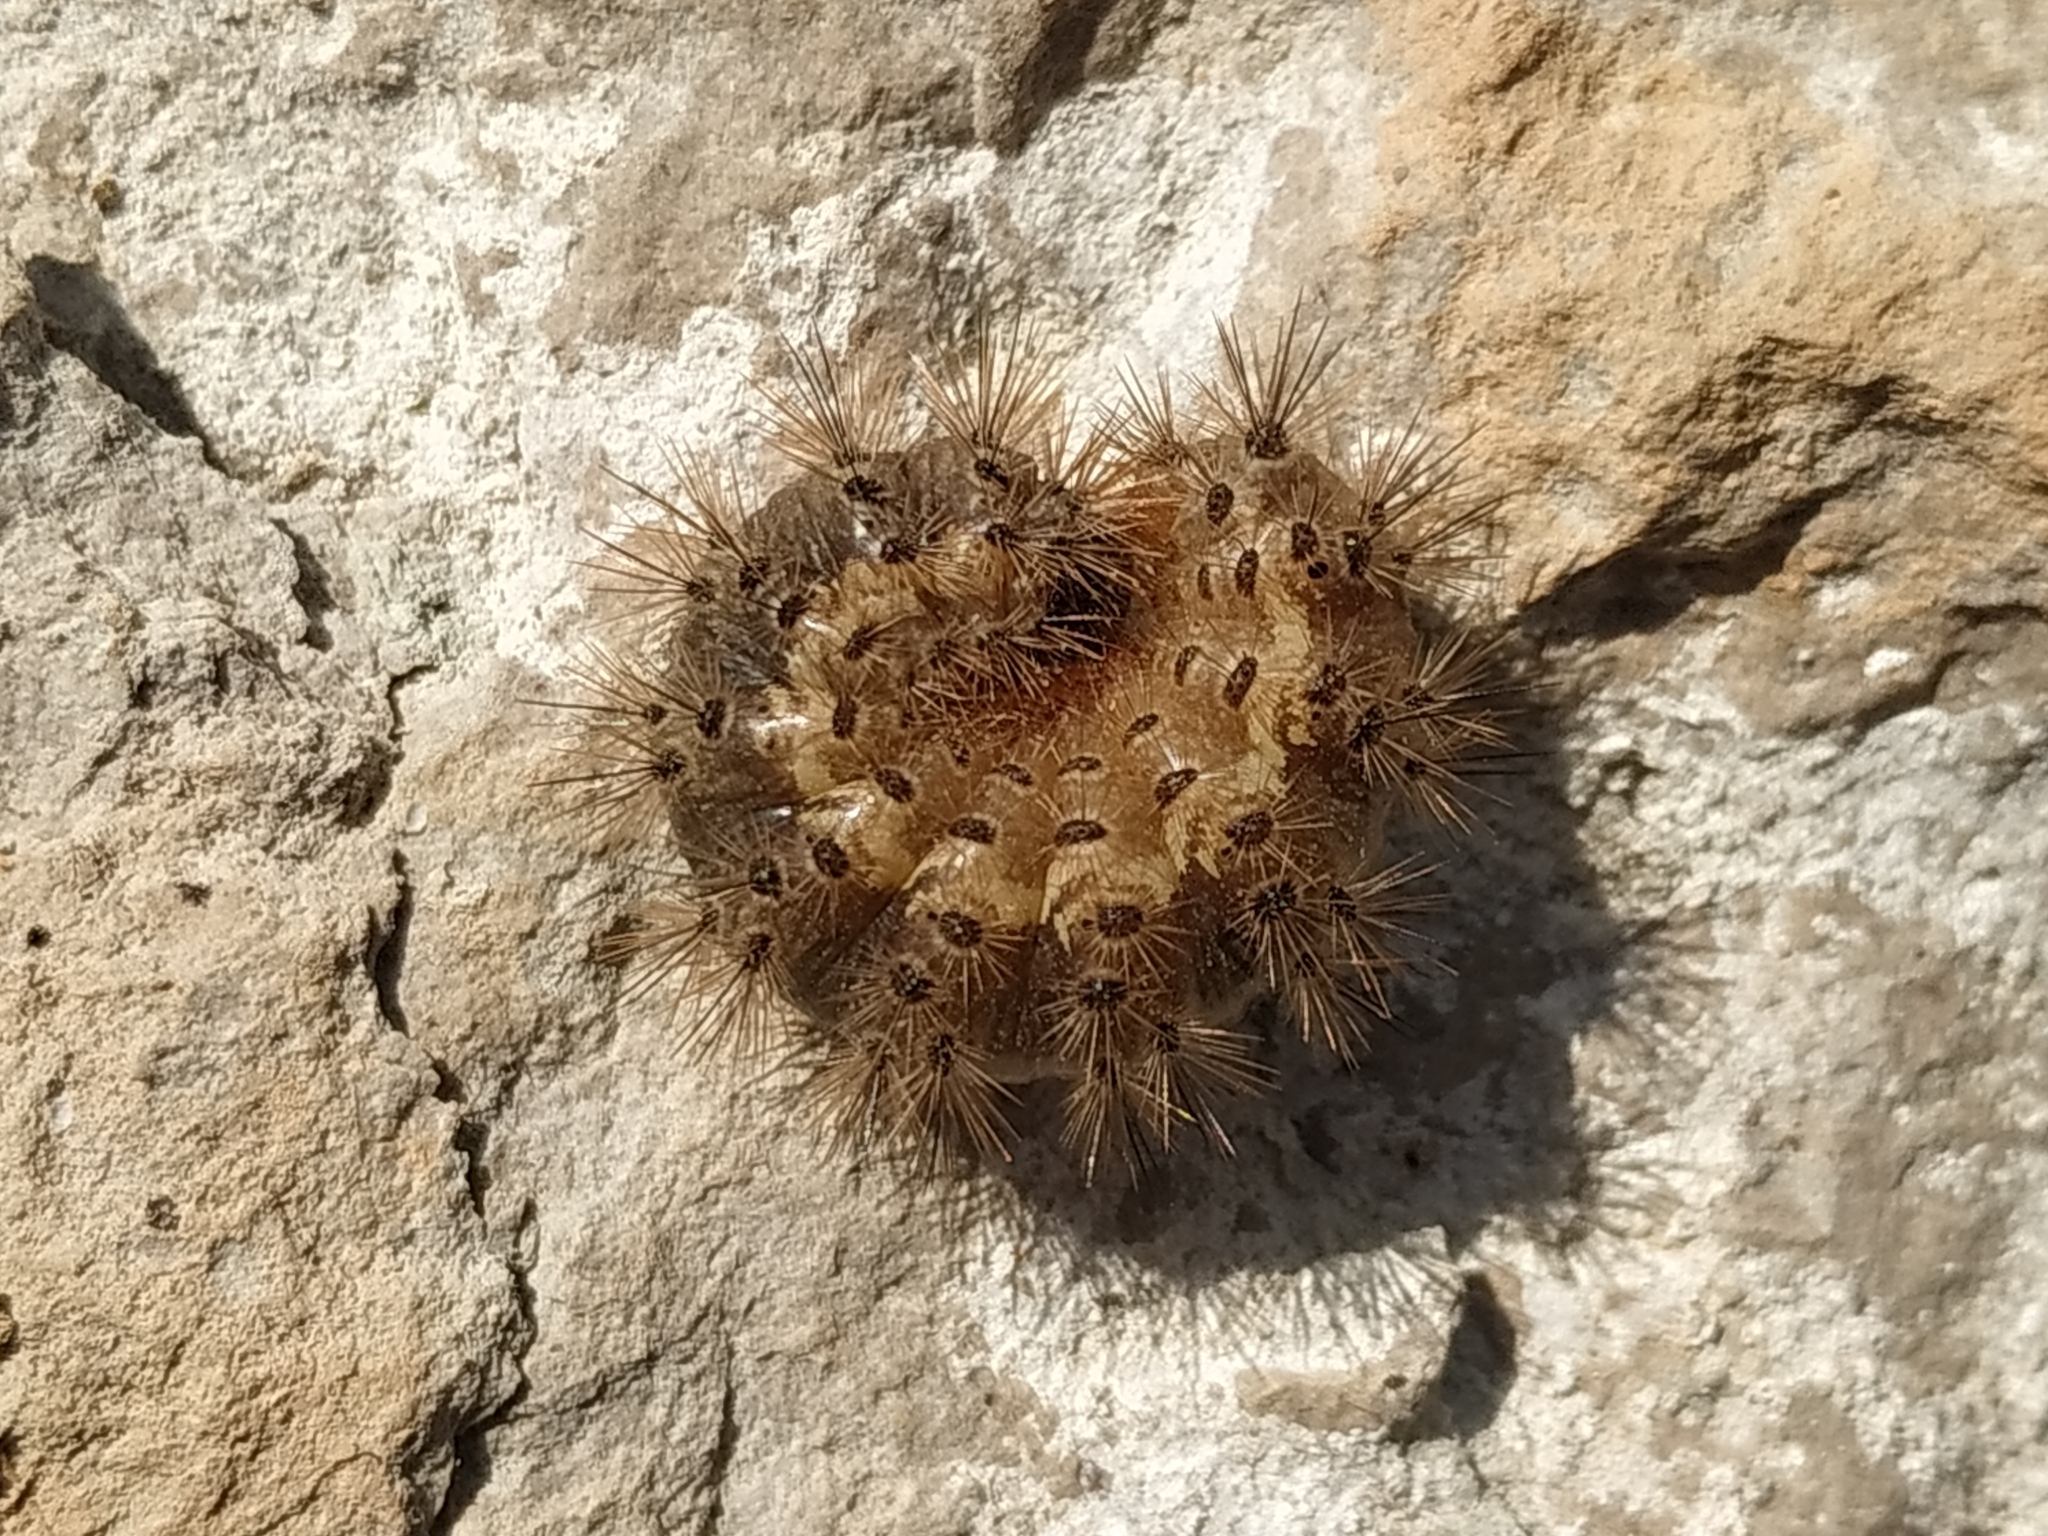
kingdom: Animalia
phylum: Arthropoda
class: Insecta
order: Lepidoptera
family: Erebidae
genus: Cymbalophora
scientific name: Cymbalophora pudica
